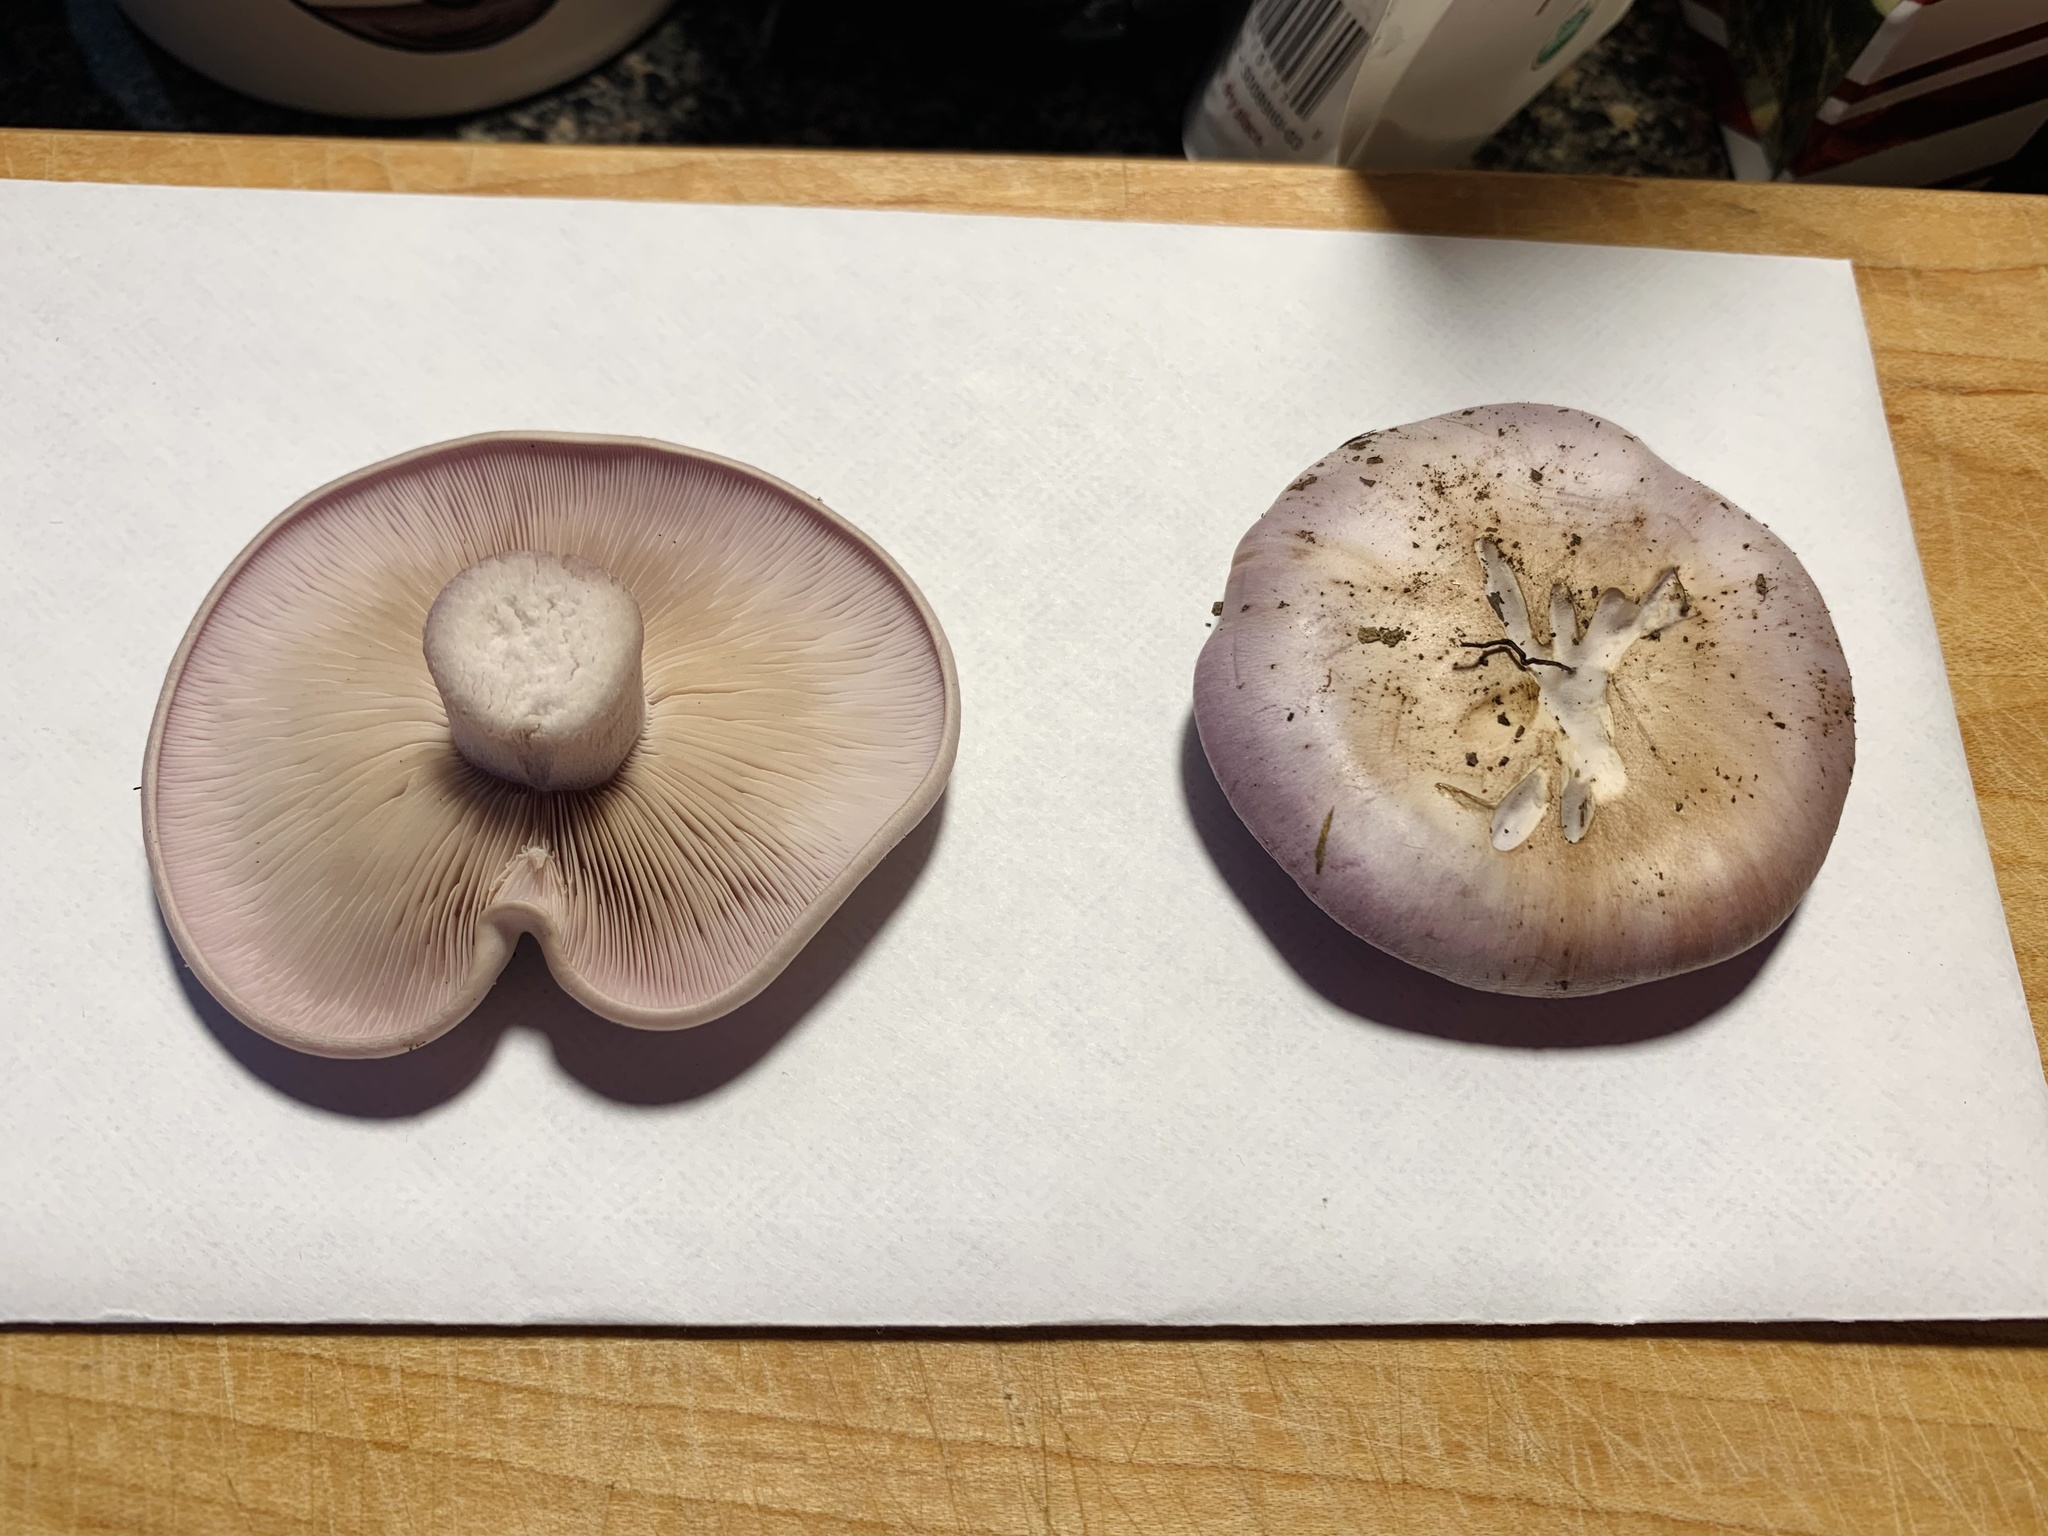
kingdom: Fungi
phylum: Basidiomycota
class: Agaricomycetes
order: Agaricales
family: Tricholomataceae
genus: Collybia
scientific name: Collybia
